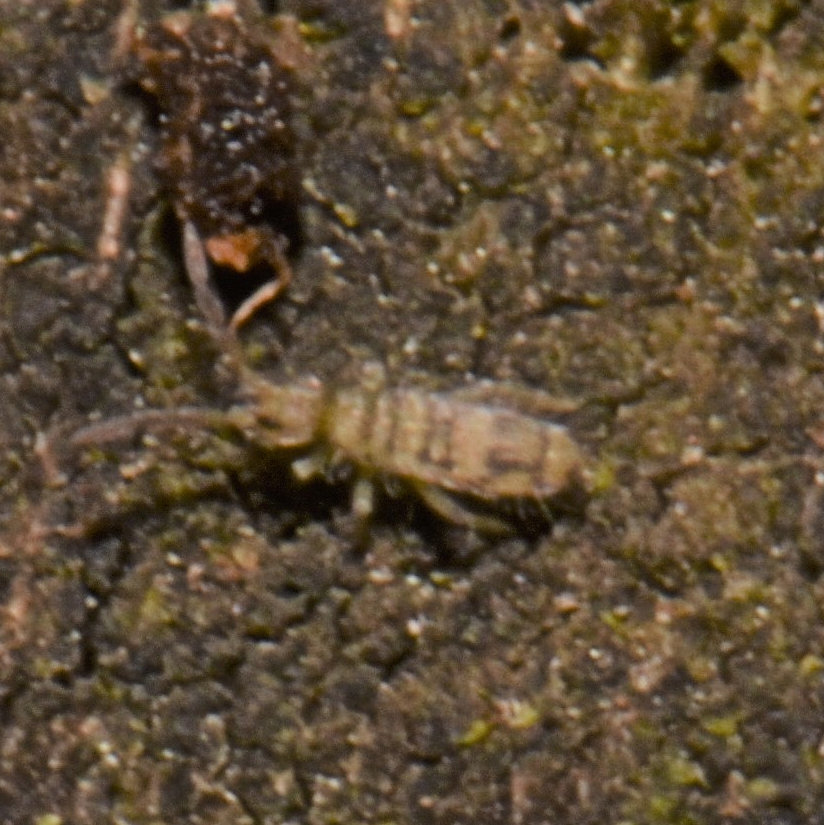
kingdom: Animalia
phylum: Arthropoda
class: Collembola
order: Entomobryomorpha
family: Entomobryidae
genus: Entomobrya
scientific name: Entomobrya nivalis
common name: Cosmopolitan springtail
